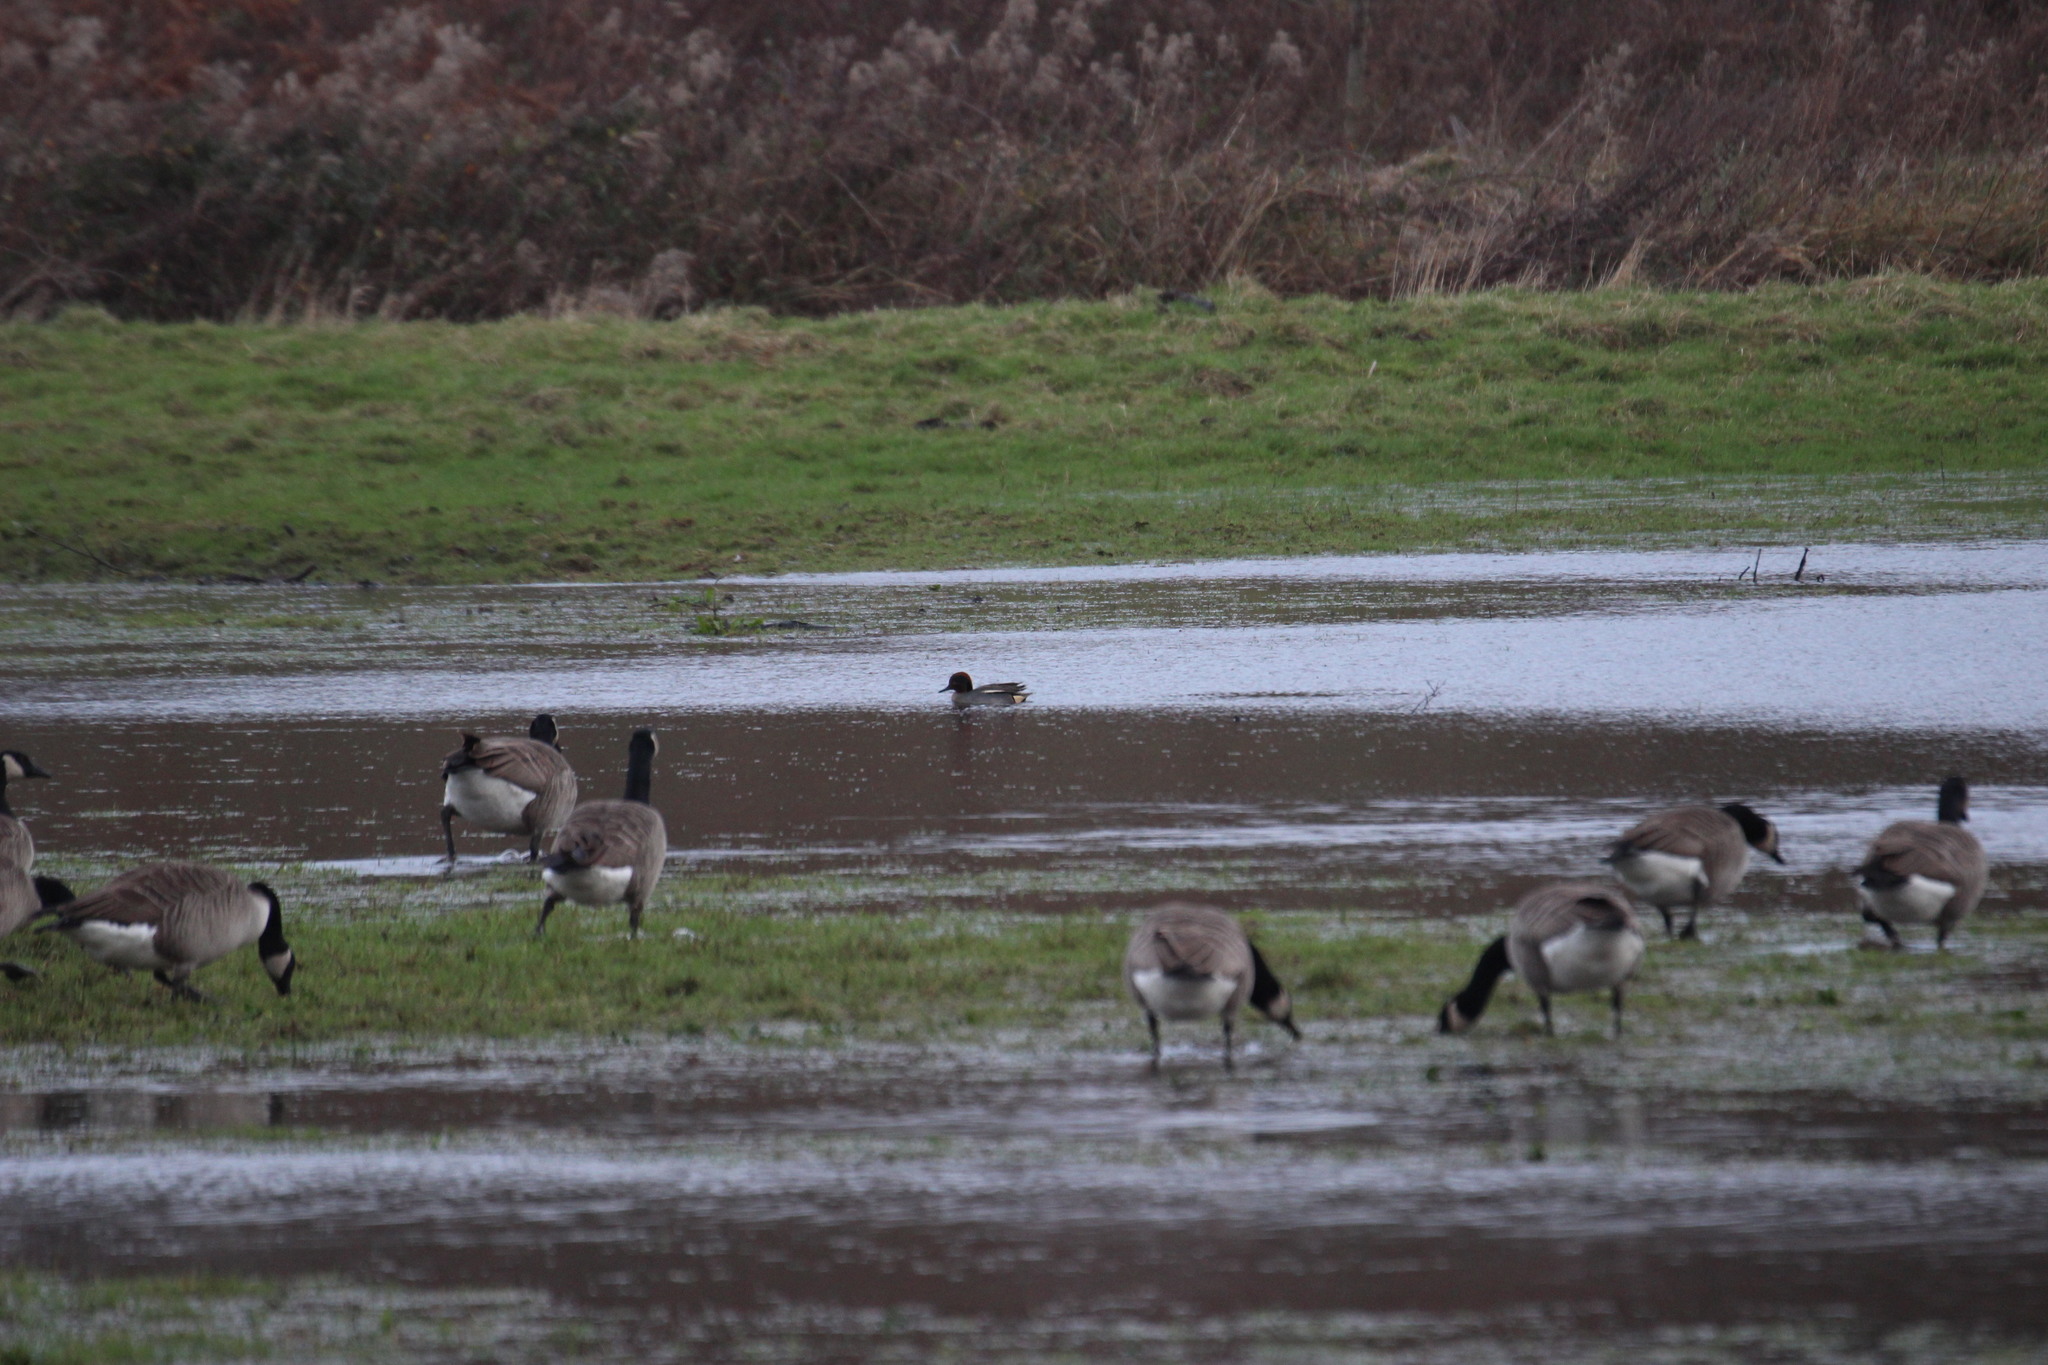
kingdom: Animalia
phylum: Chordata
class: Aves
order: Anseriformes
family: Anatidae
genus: Anas
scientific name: Anas crecca
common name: Eurasian teal
